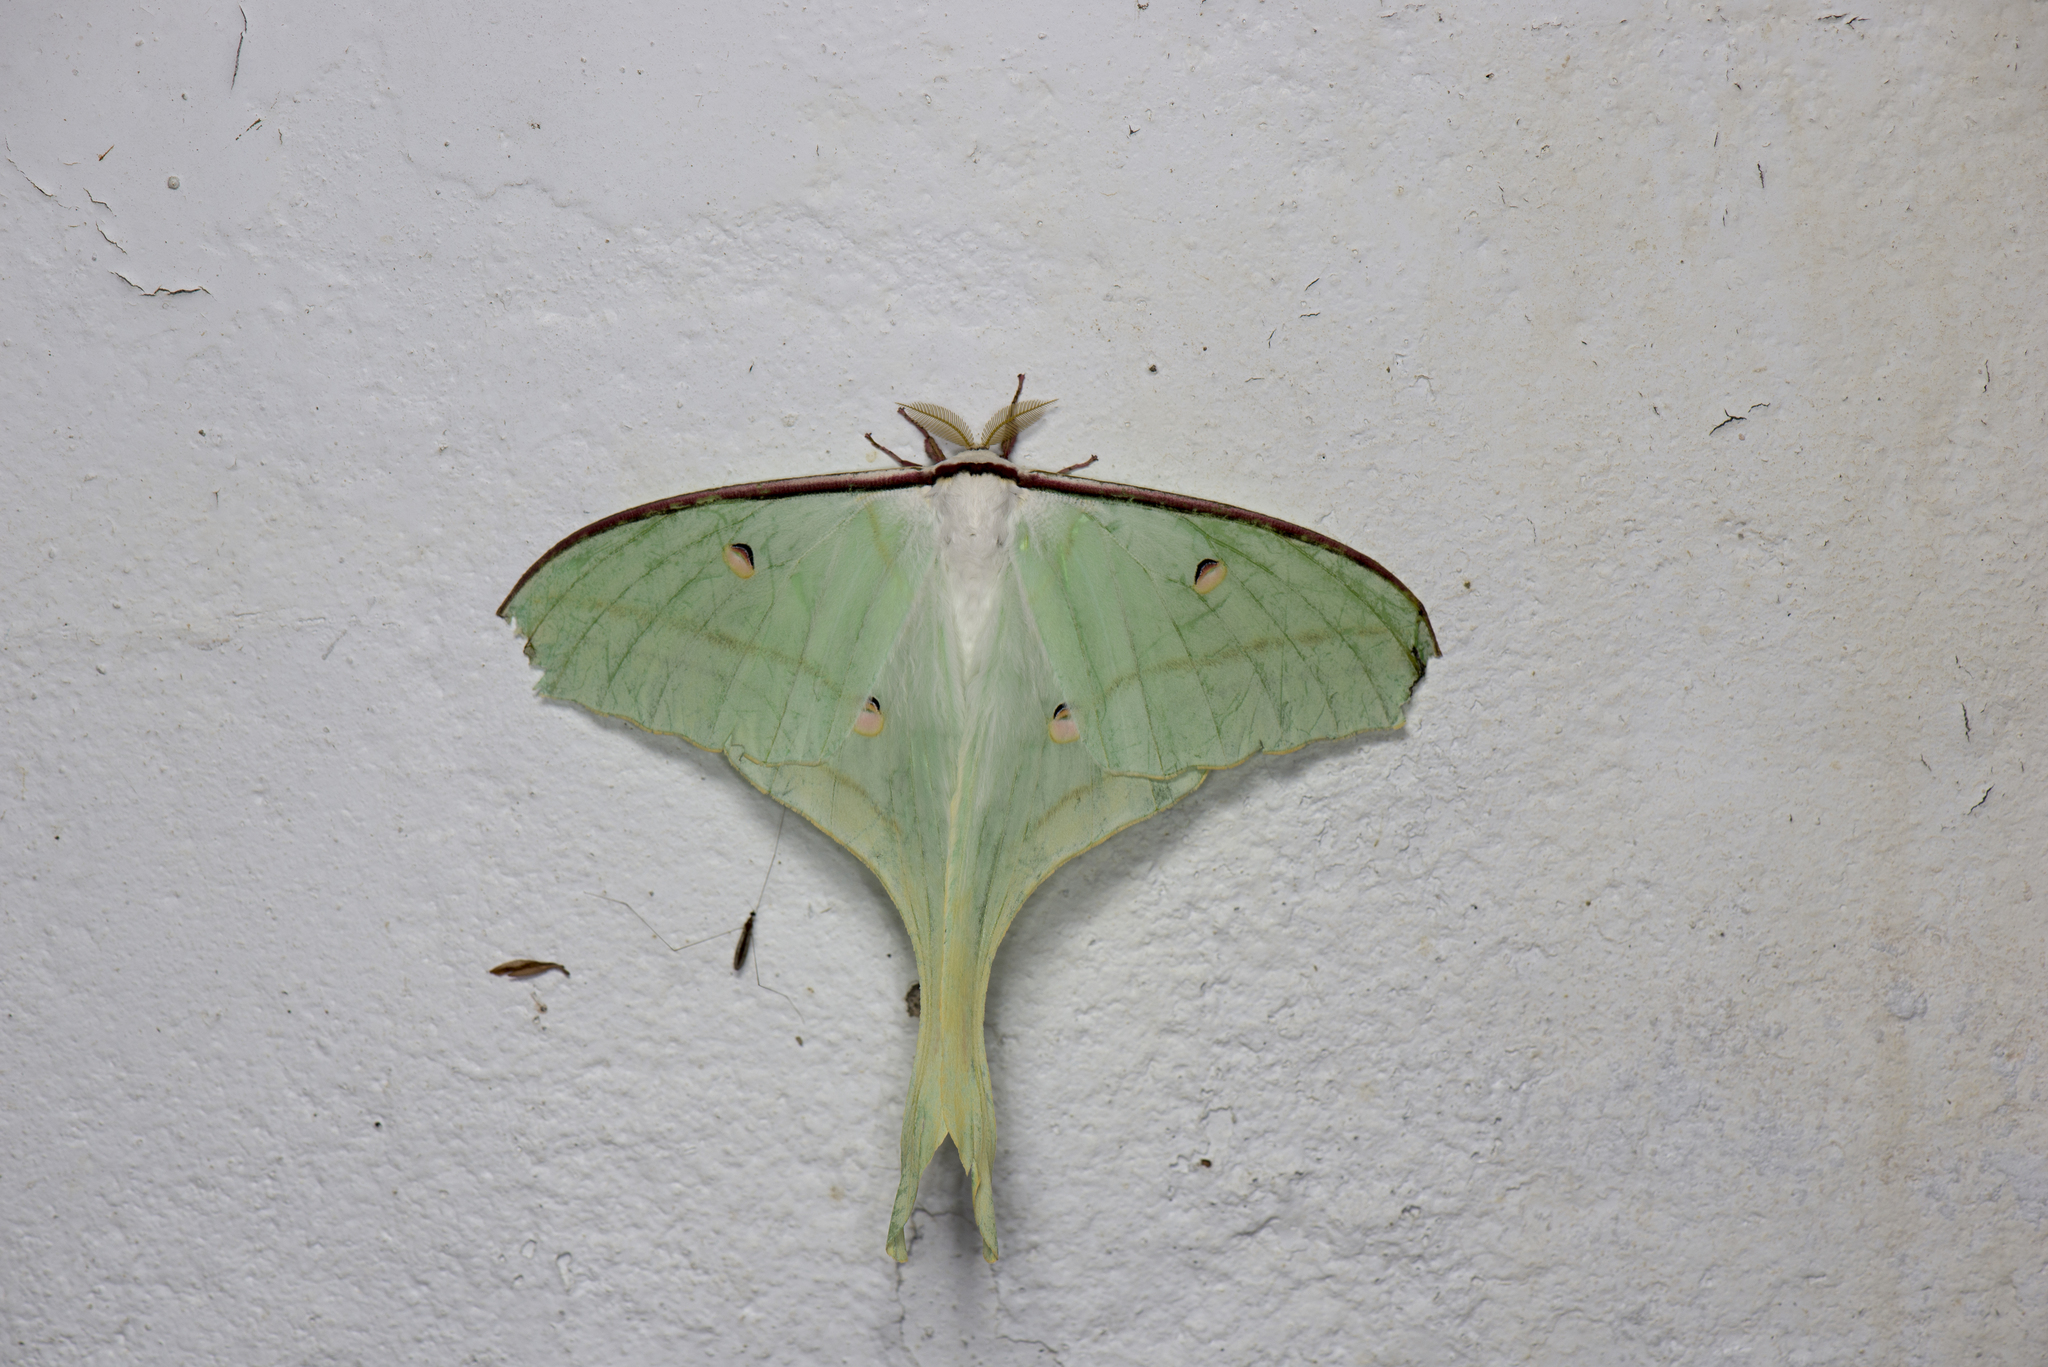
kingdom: Animalia
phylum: Arthropoda
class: Insecta
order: Lepidoptera
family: Saturniidae
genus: Actias
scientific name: Actias ningpoana
